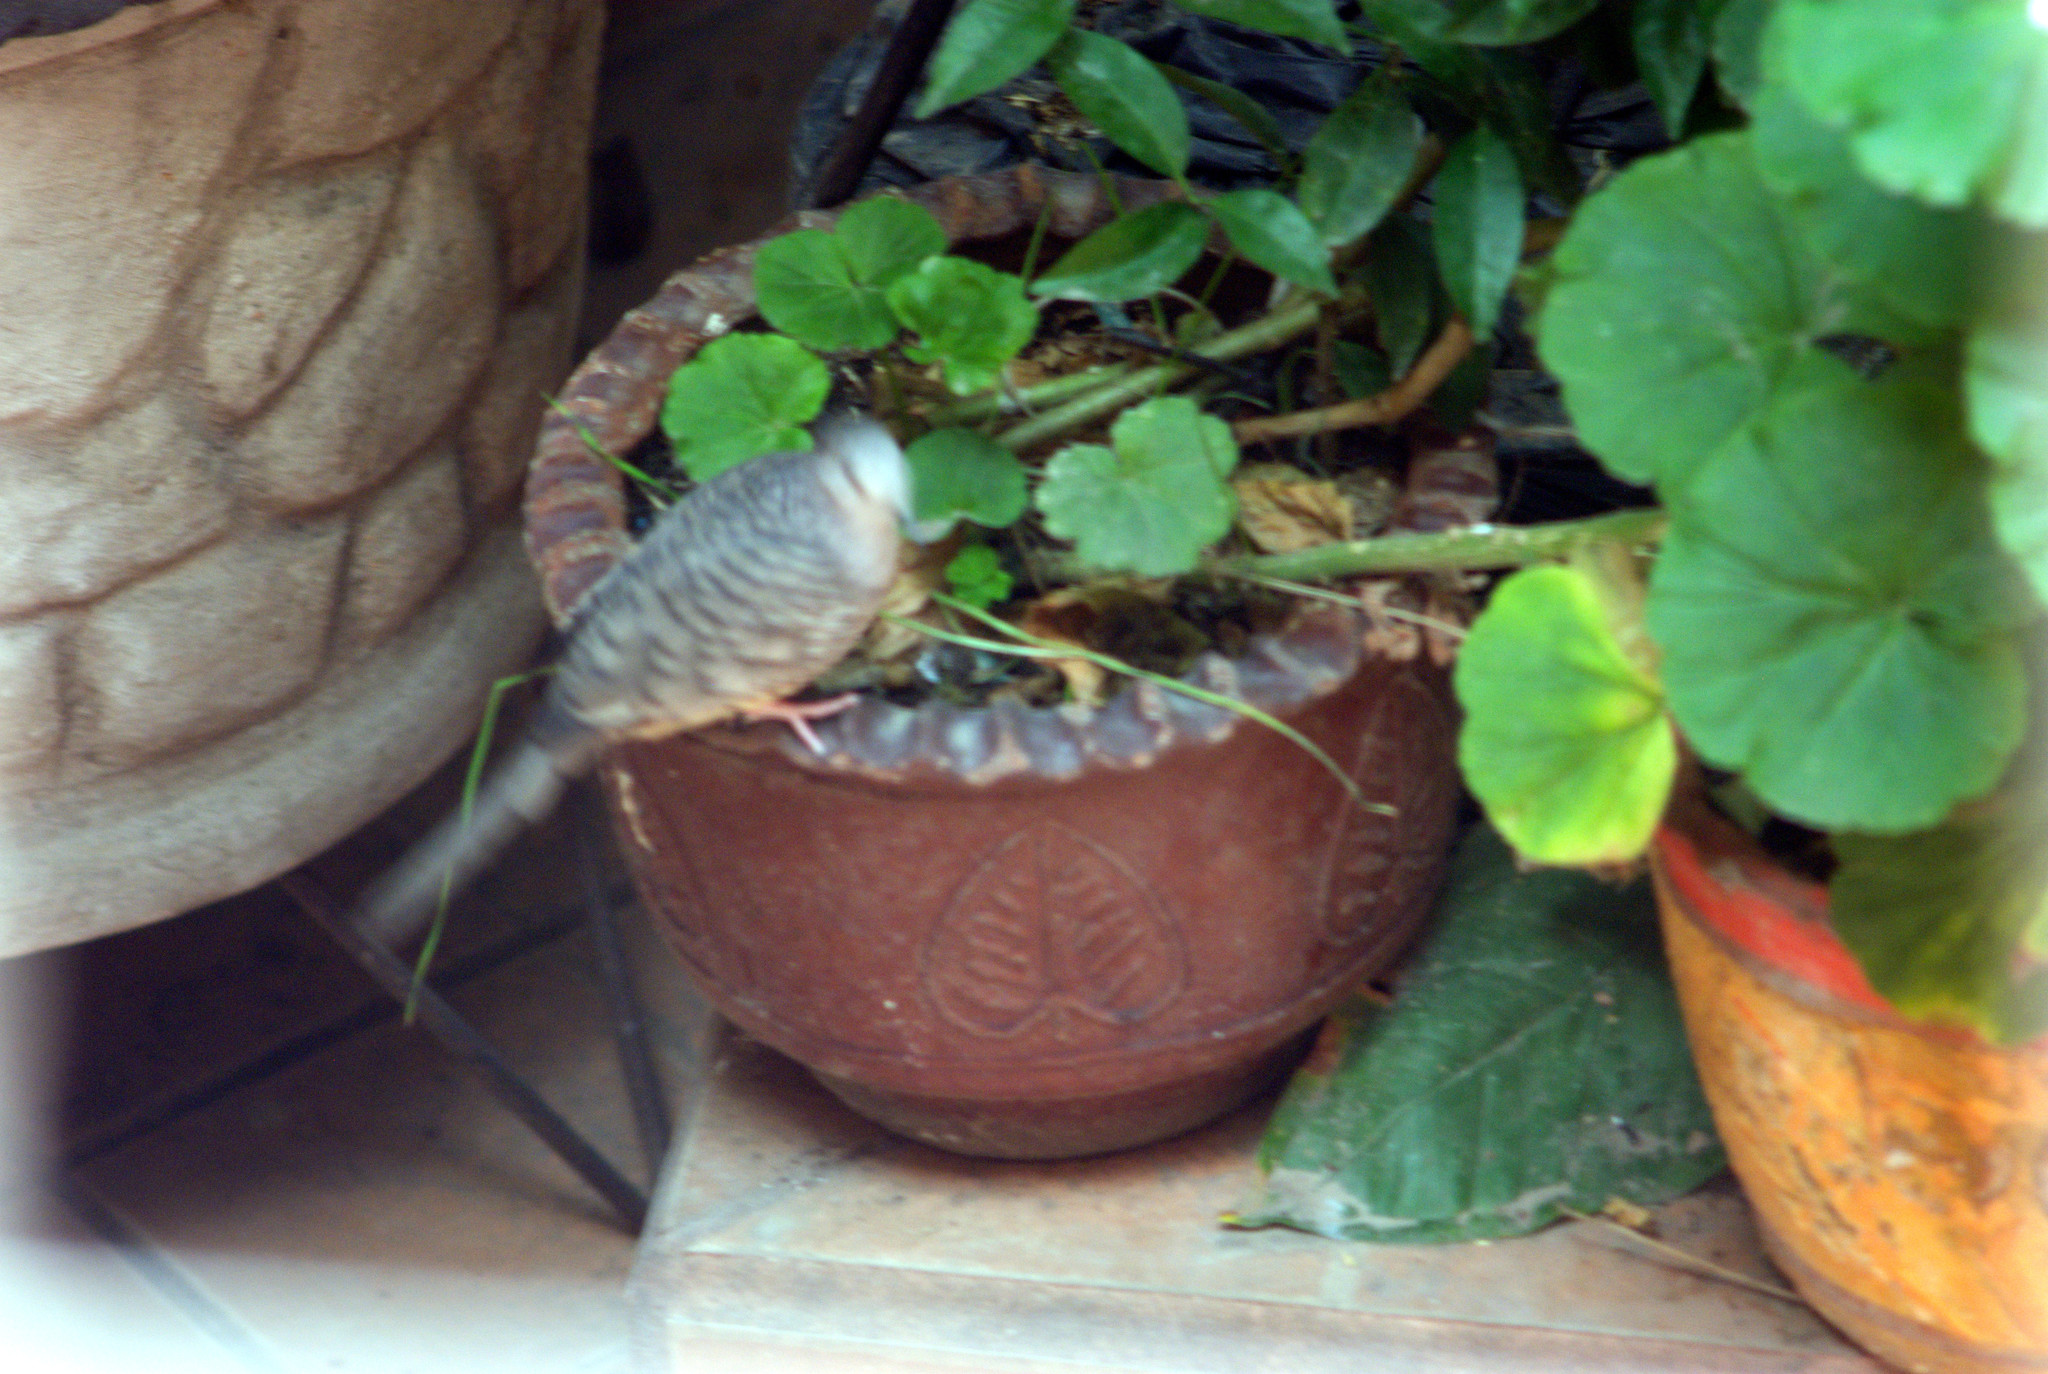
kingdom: Animalia
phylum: Chordata
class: Aves
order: Columbiformes
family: Columbidae
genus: Columbina
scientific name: Columbina inca
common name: Inca dove
